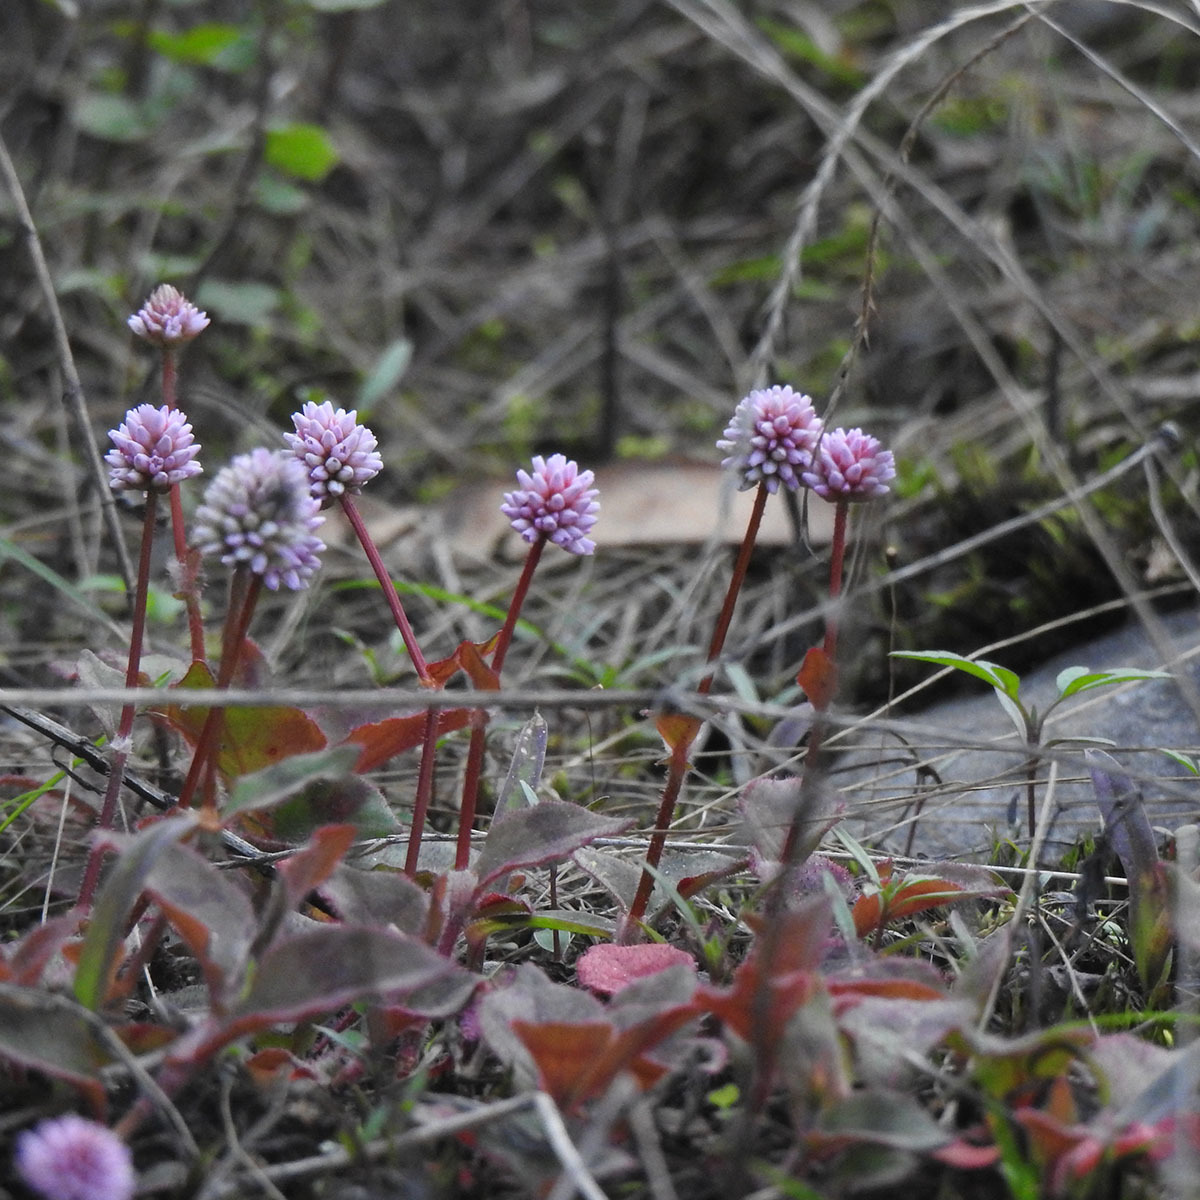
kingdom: Plantae
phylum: Tracheophyta
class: Magnoliopsida
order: Caryophyllales
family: Polygonaceae
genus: Persicaria
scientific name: Persicaria capitata
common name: Pinkhead smartweed
